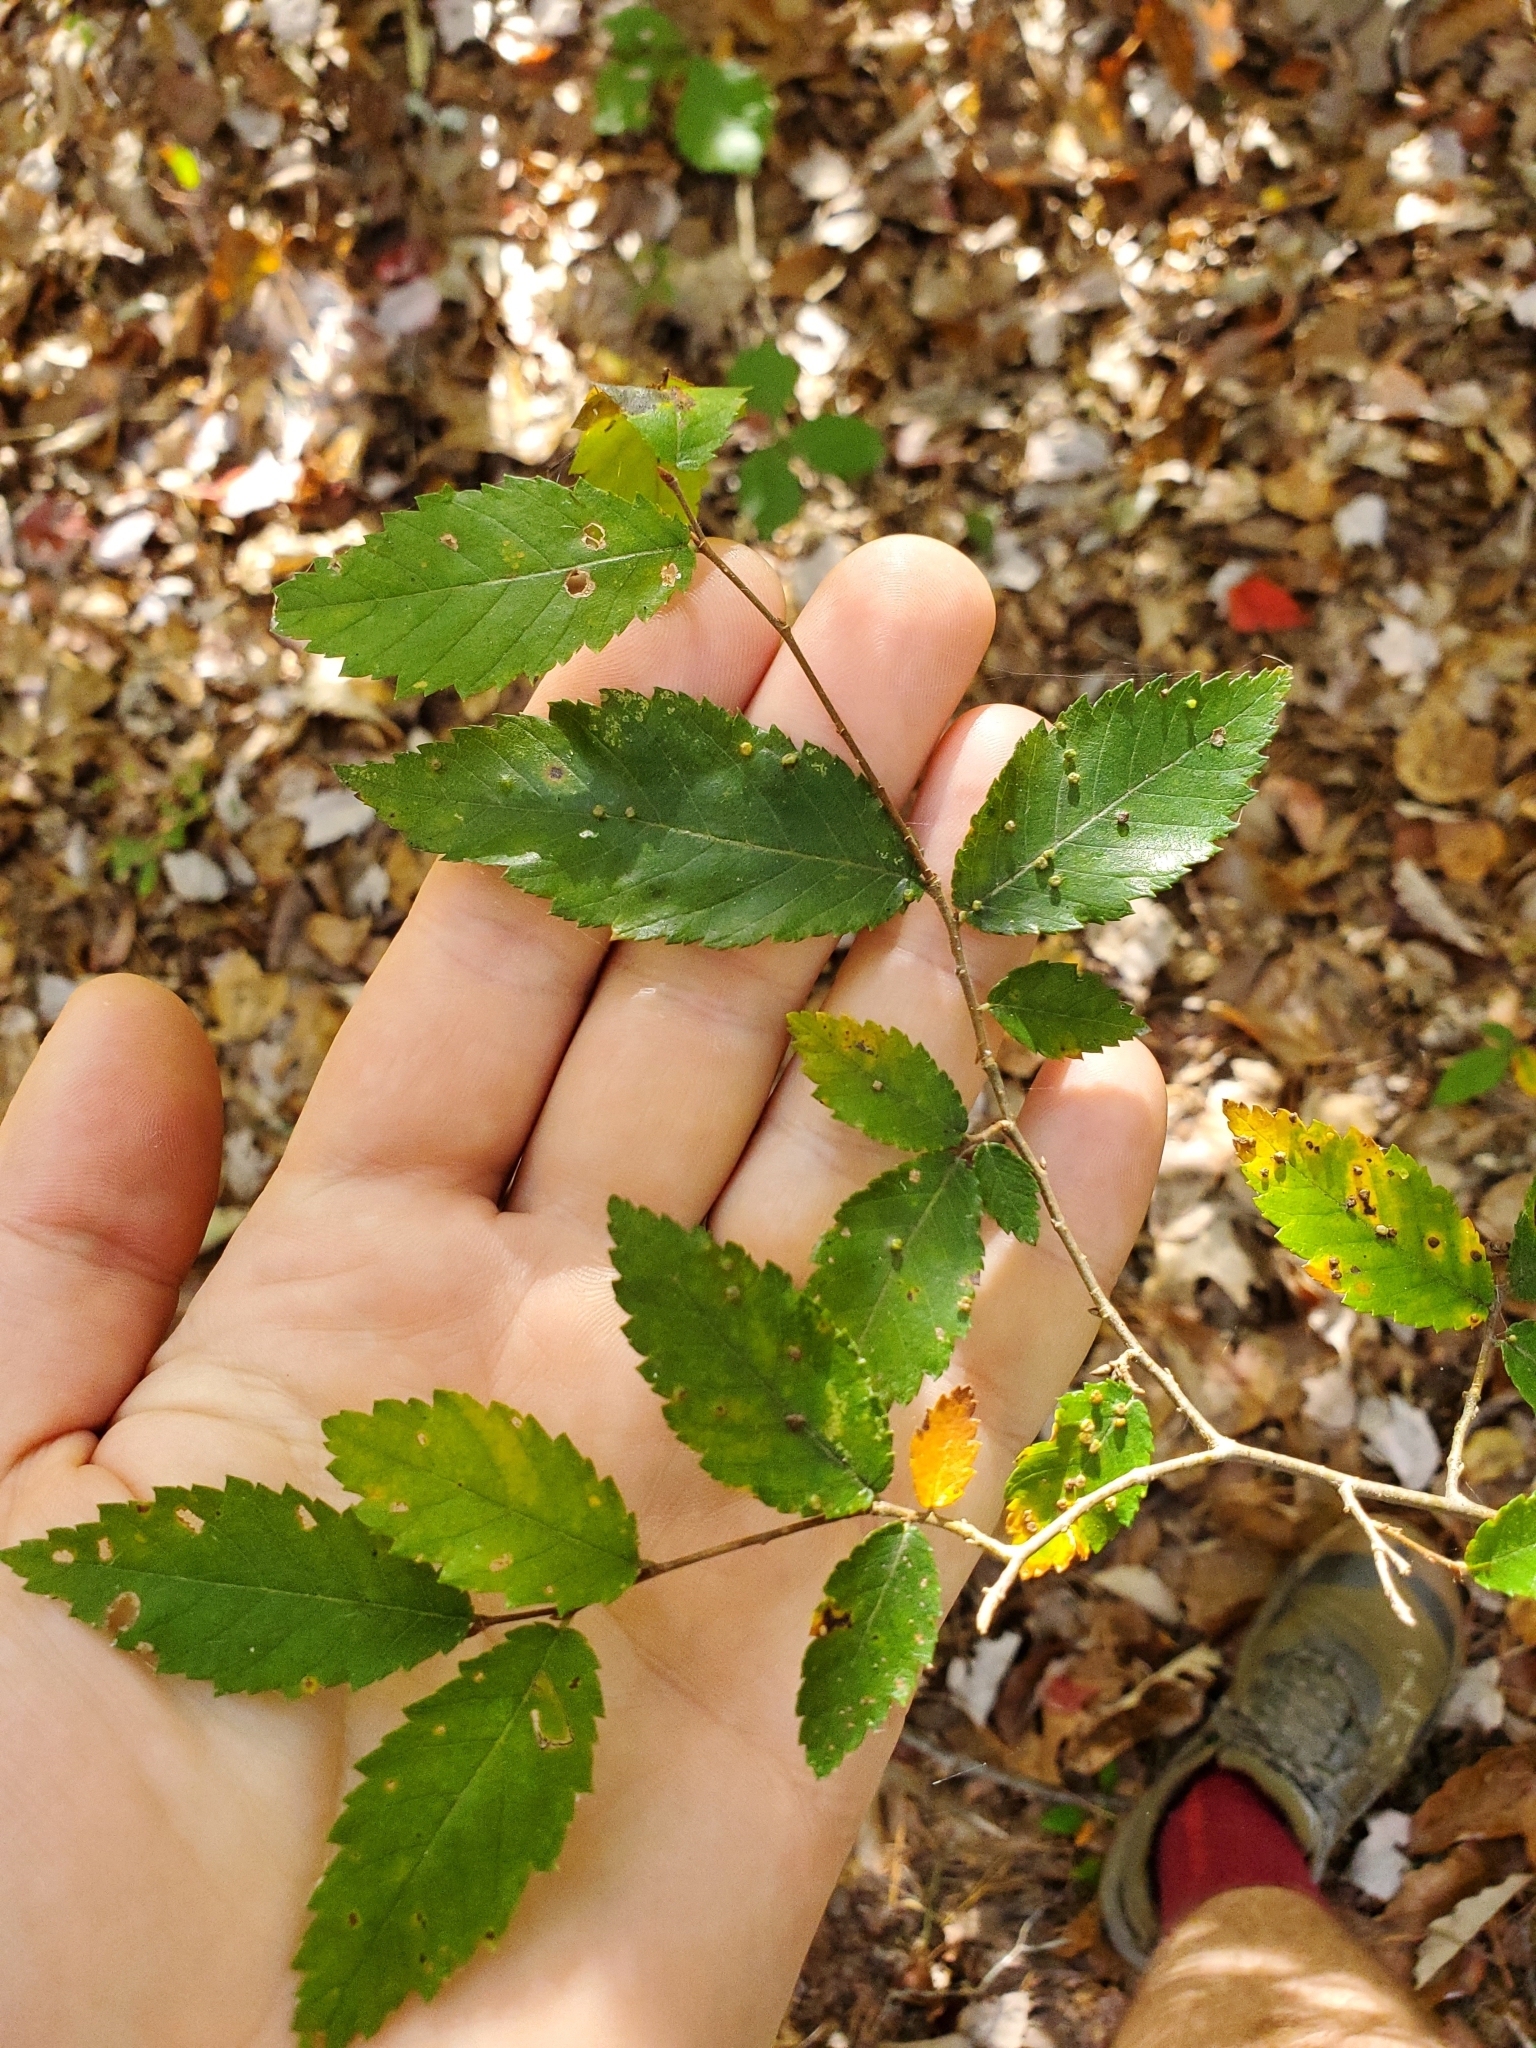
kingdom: Animalia
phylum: Arthropoda
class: Arachnida
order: Trombidiformes
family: Eriophyidae
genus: Aceria
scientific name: Aceria brevipunctata
